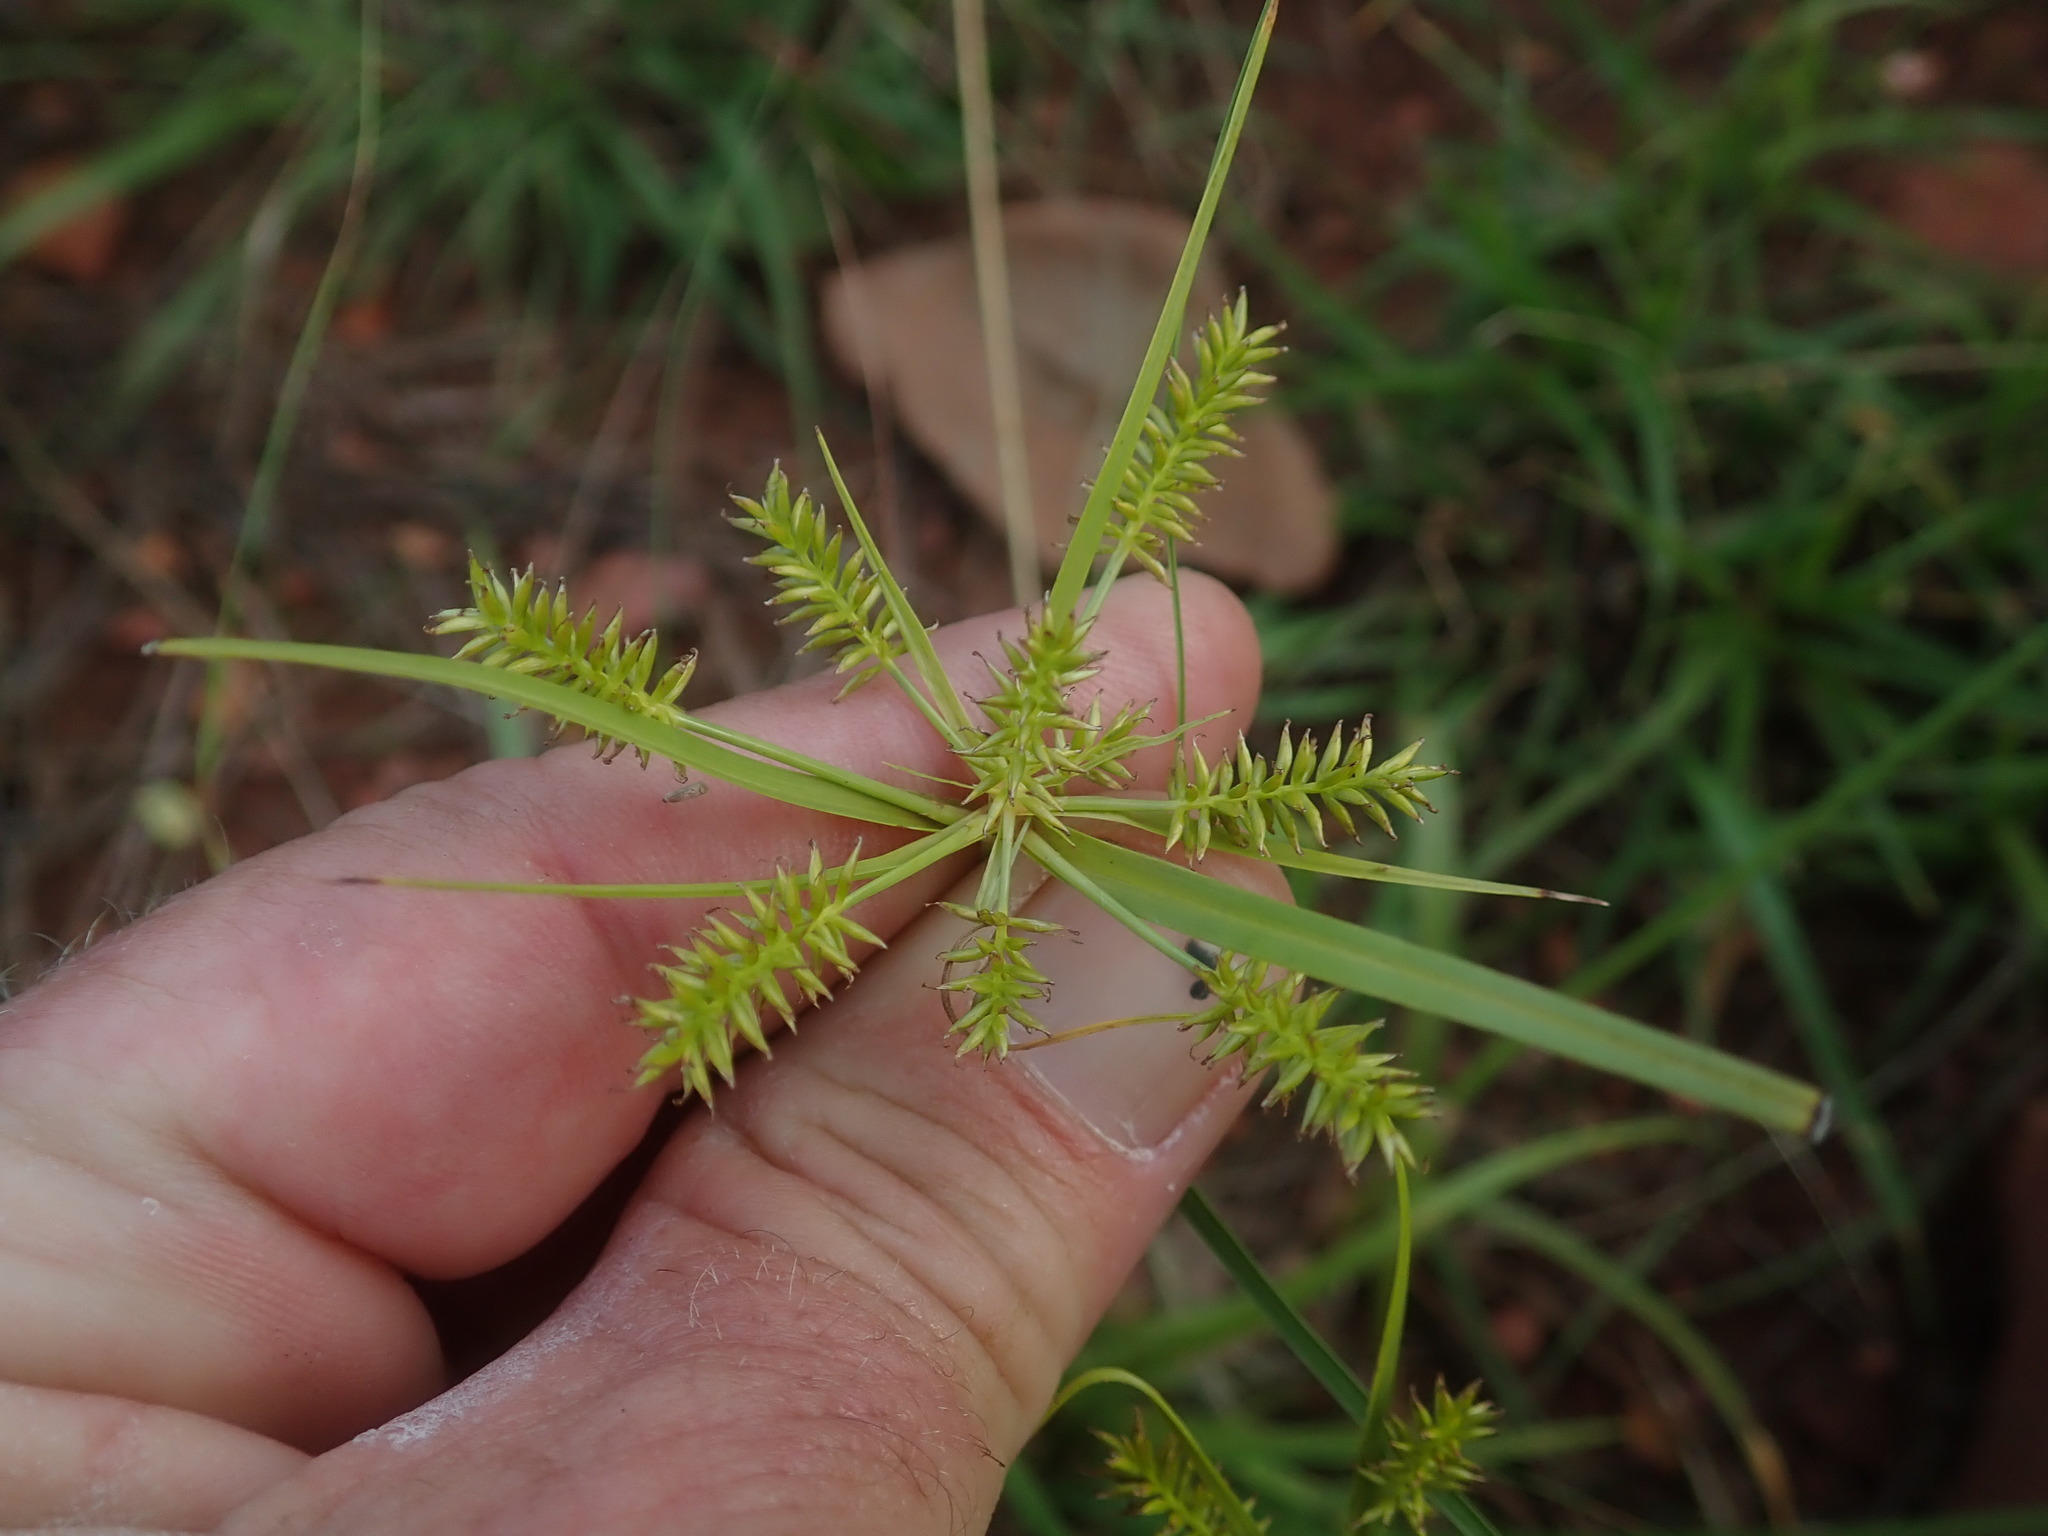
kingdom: Plantae
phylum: Tracheophyta
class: Liliopsida
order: Poales
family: Cyperaceae
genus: Cyperus
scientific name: Cyperus cyperoides
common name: Pacific island flat sedge
